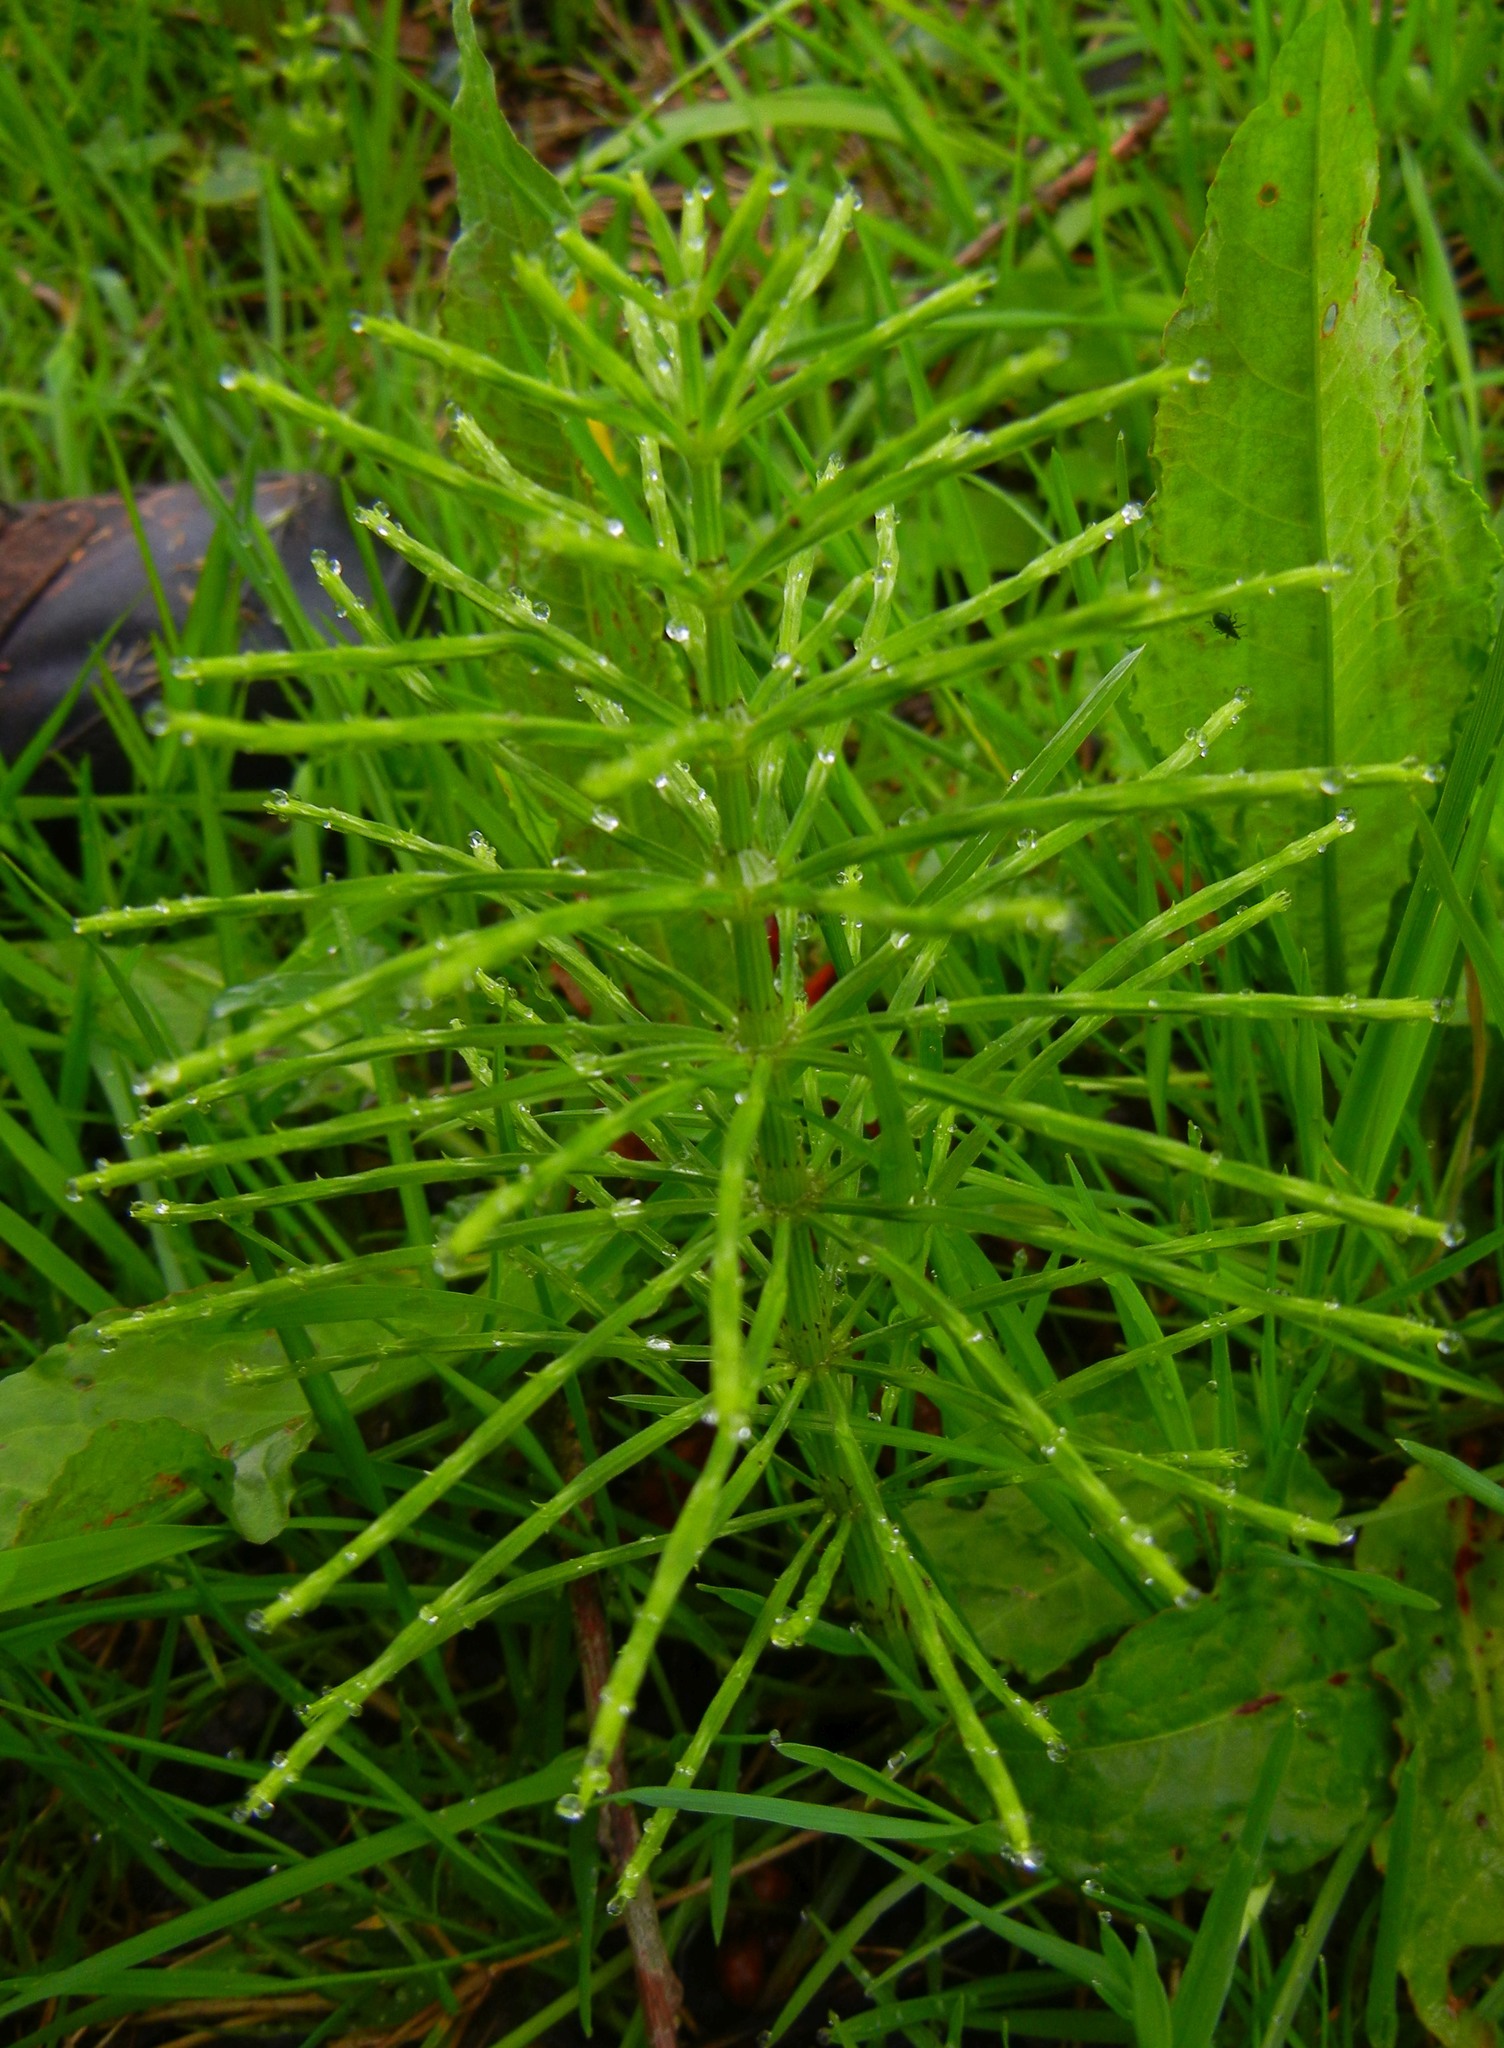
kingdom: Plantae
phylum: Tracheophyta
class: Polypodiopsida
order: Equisetales
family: Equisetaceae
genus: Equisetum
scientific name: Equisetum arvense
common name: Field horsetail
